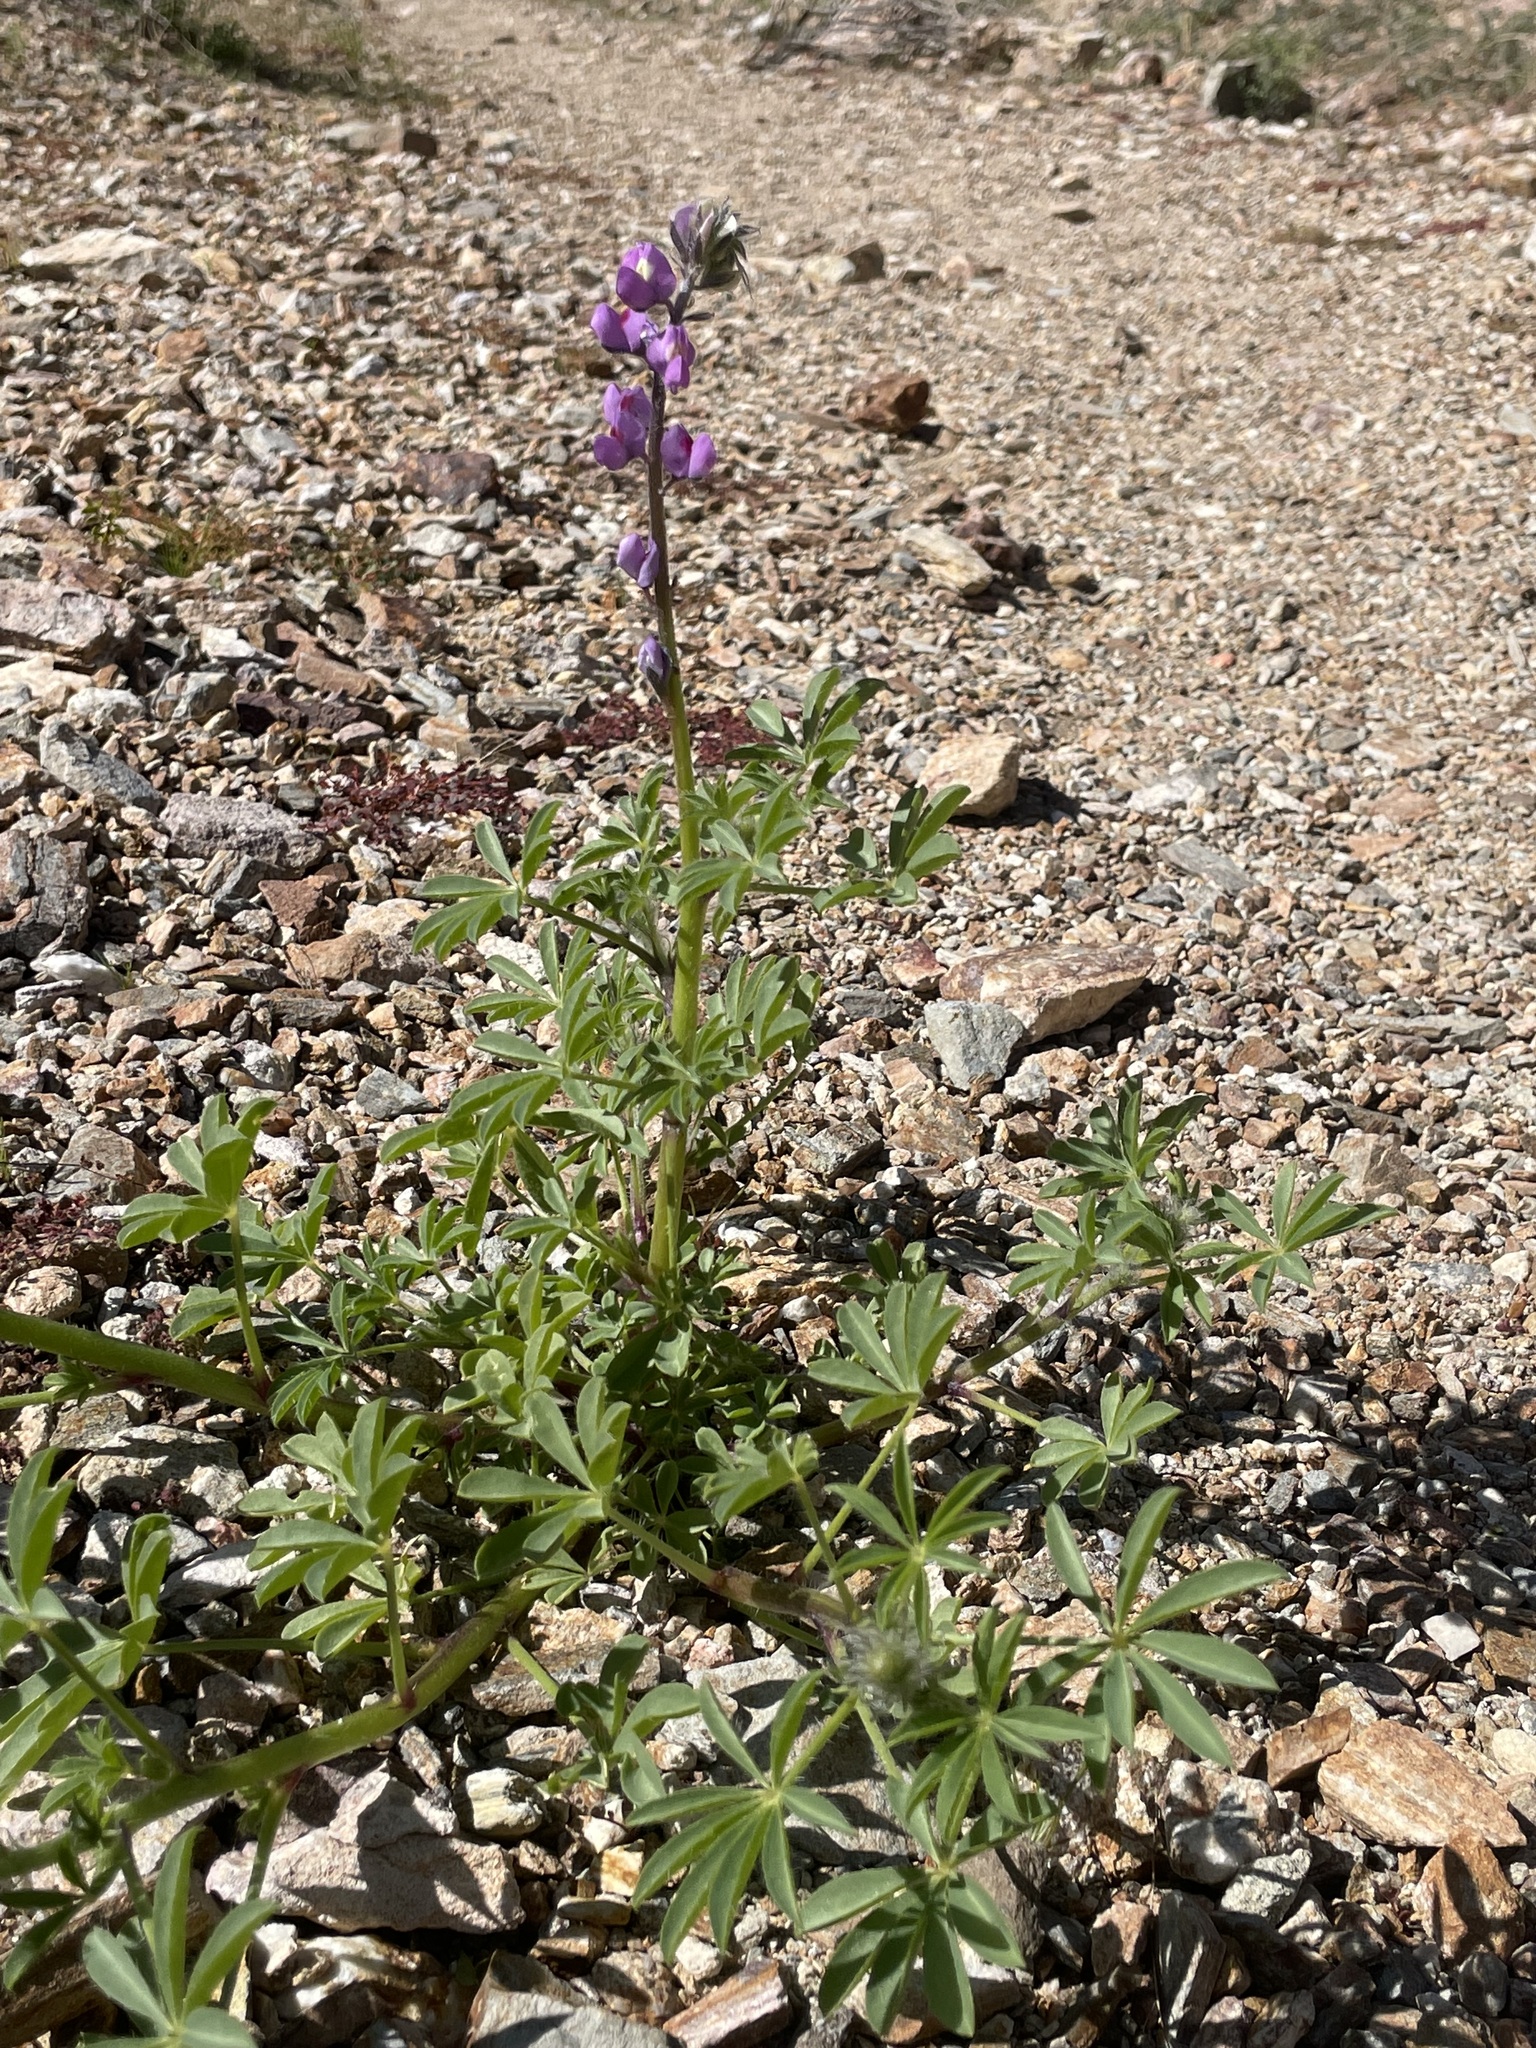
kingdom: Plantae
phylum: Tracheophyta
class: Magnoliopsida
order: Fabales
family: Fabaceae
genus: Lupinus
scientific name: Lupinus arizonicus
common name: Arizona lupine
